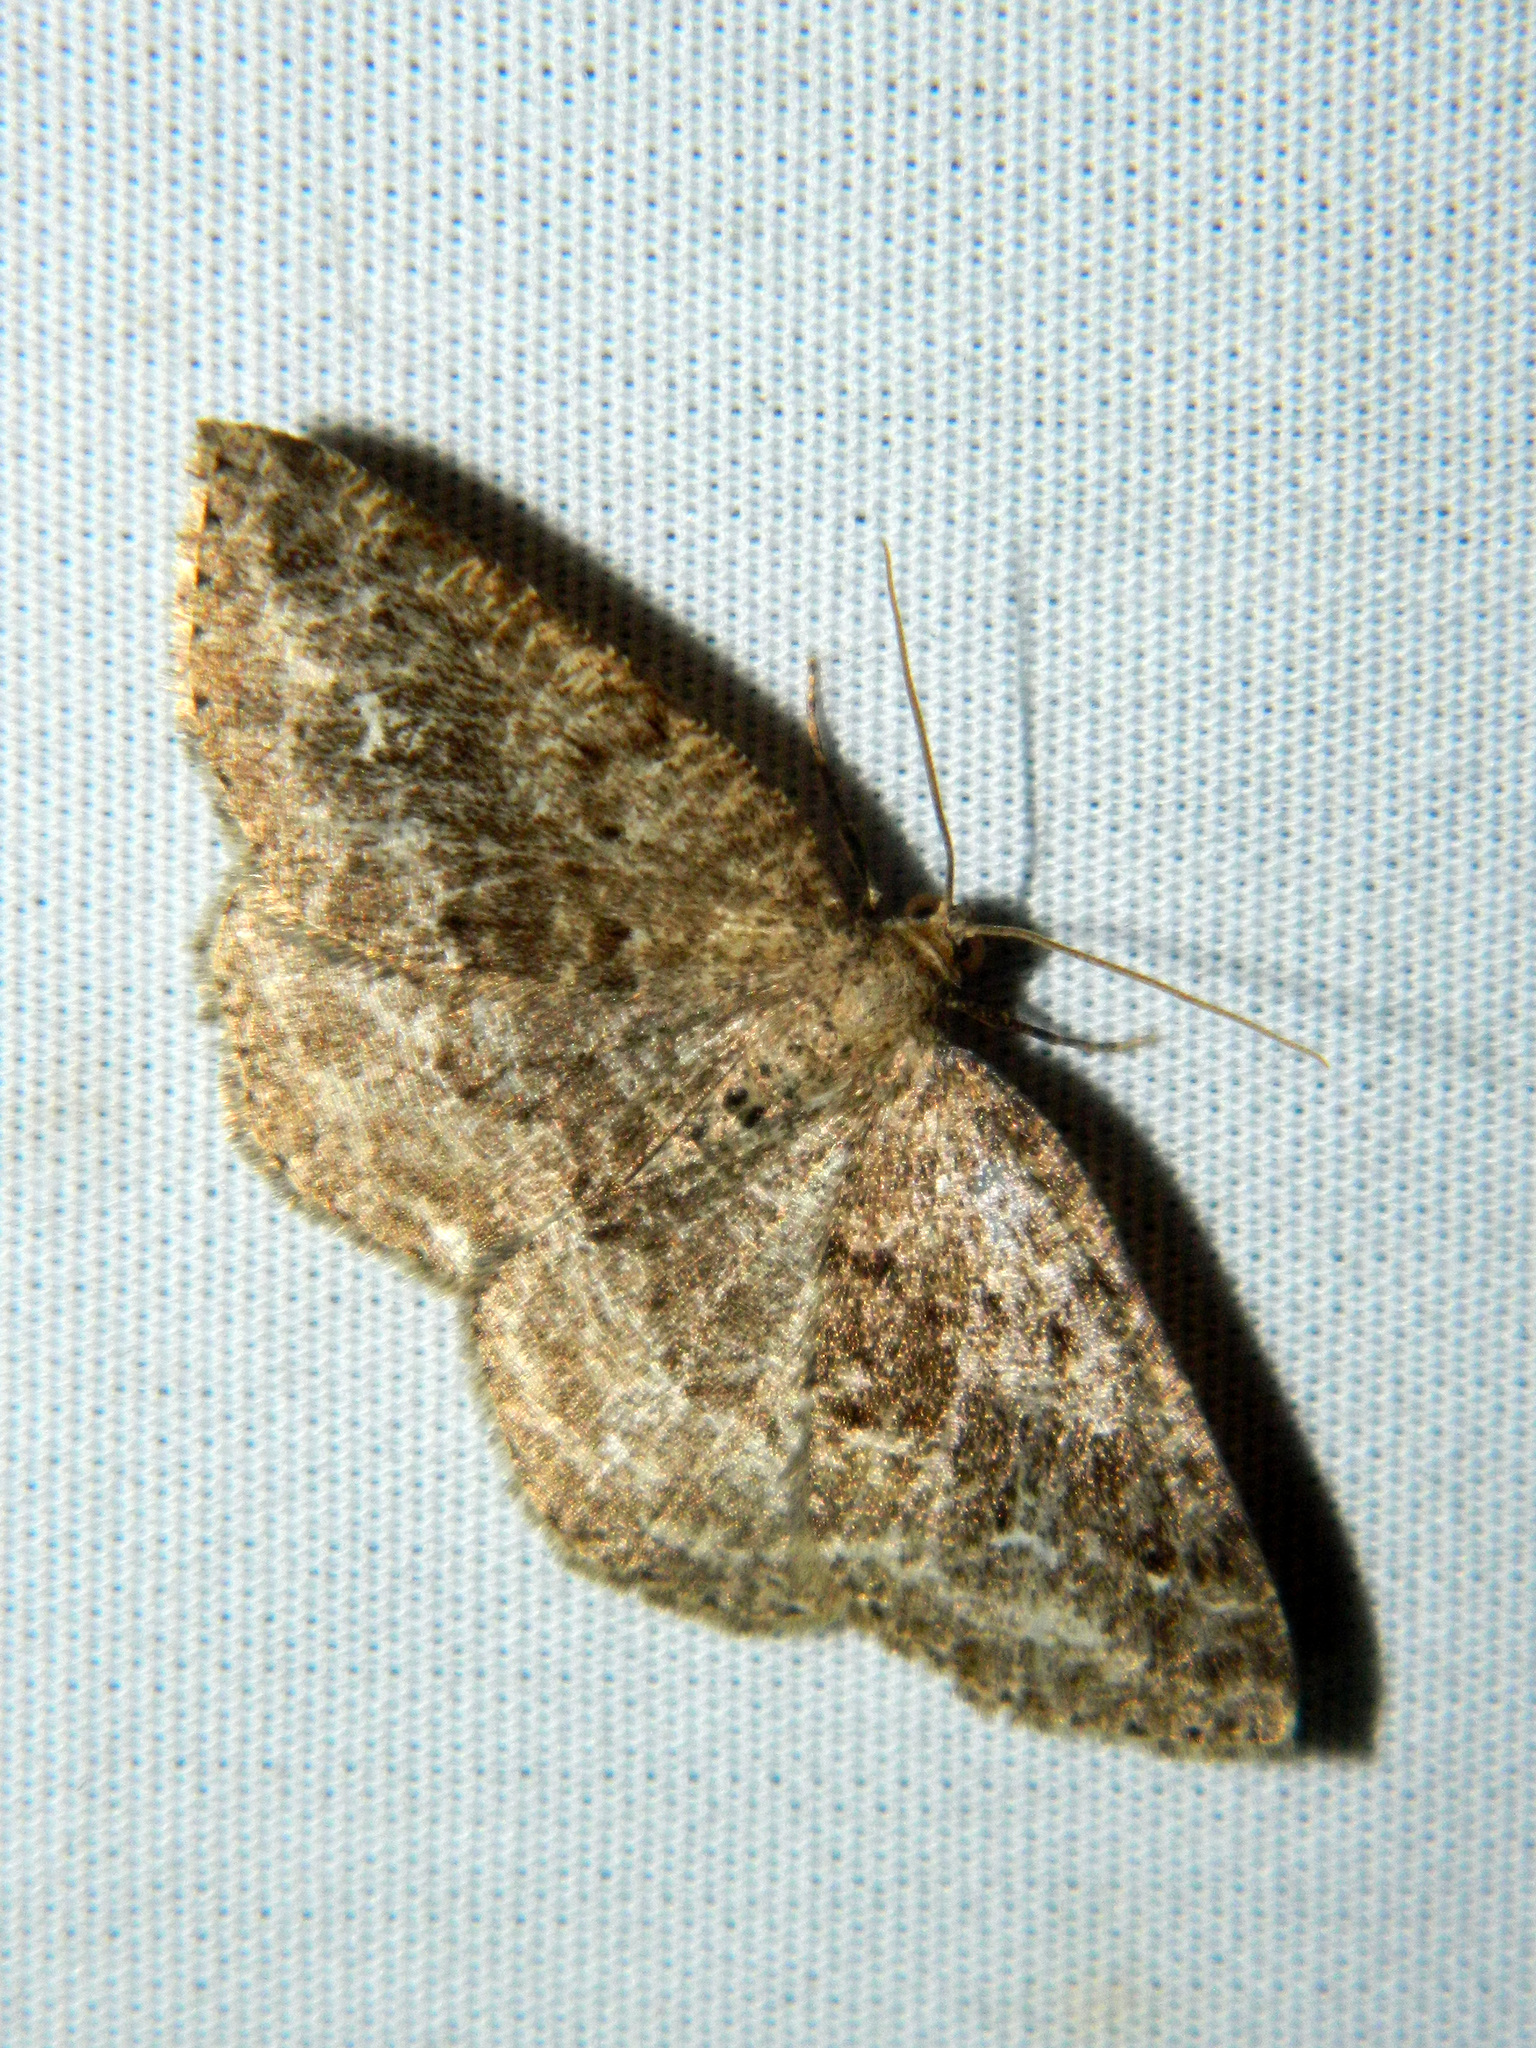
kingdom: Animalia
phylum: Arthropoda
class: Insecta
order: Lepidoptera
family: Geometridae
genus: Homochlodes
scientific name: Homochlodes fritillaria
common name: Pale homochlodes
